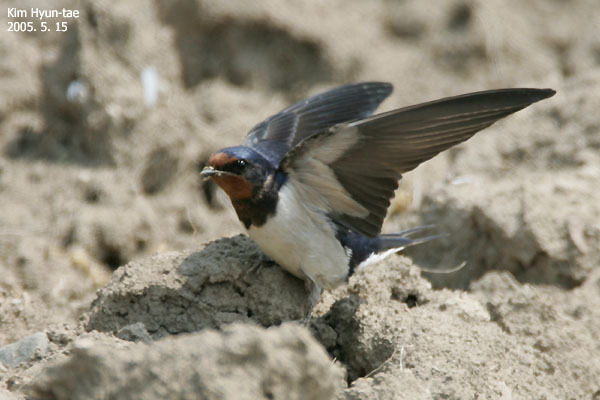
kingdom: Animalia
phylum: Chordata
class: Aves
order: Passeriformes
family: Hirundinidae
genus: Hirundo
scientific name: Hirundo rustica
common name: Barn swallow
